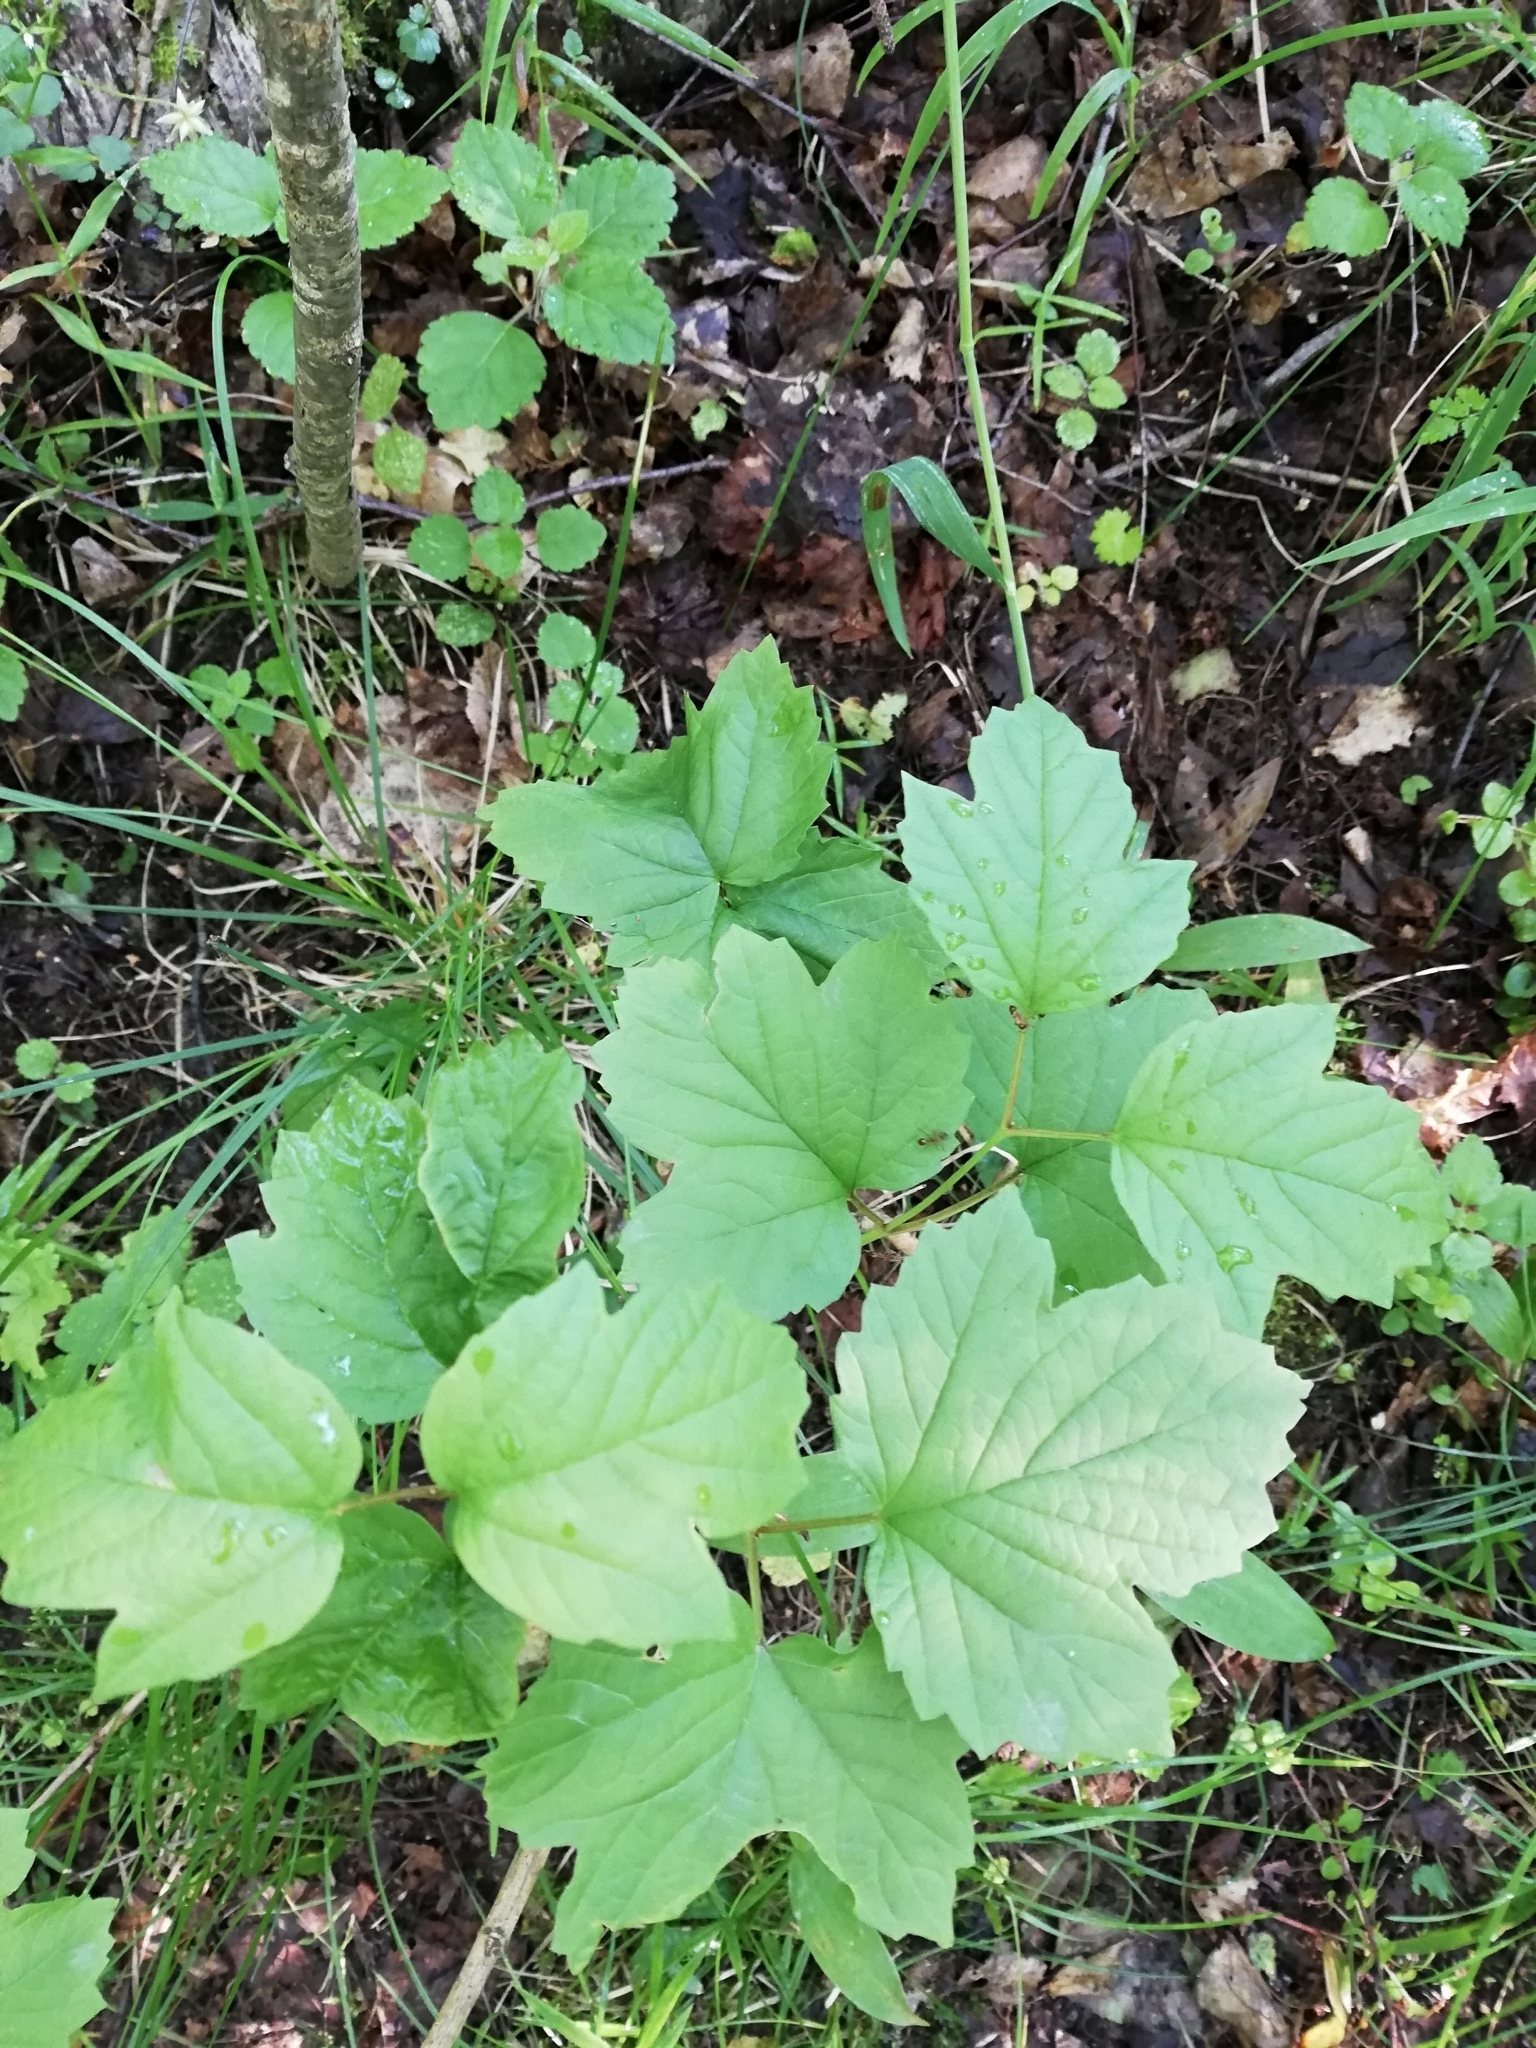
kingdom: Plantae
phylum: Tracheophyta
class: Magnoliopsida
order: Dipsacales
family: Viburnaceae
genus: Viburnum
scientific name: Viburnum opulus
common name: Guelder-rose
